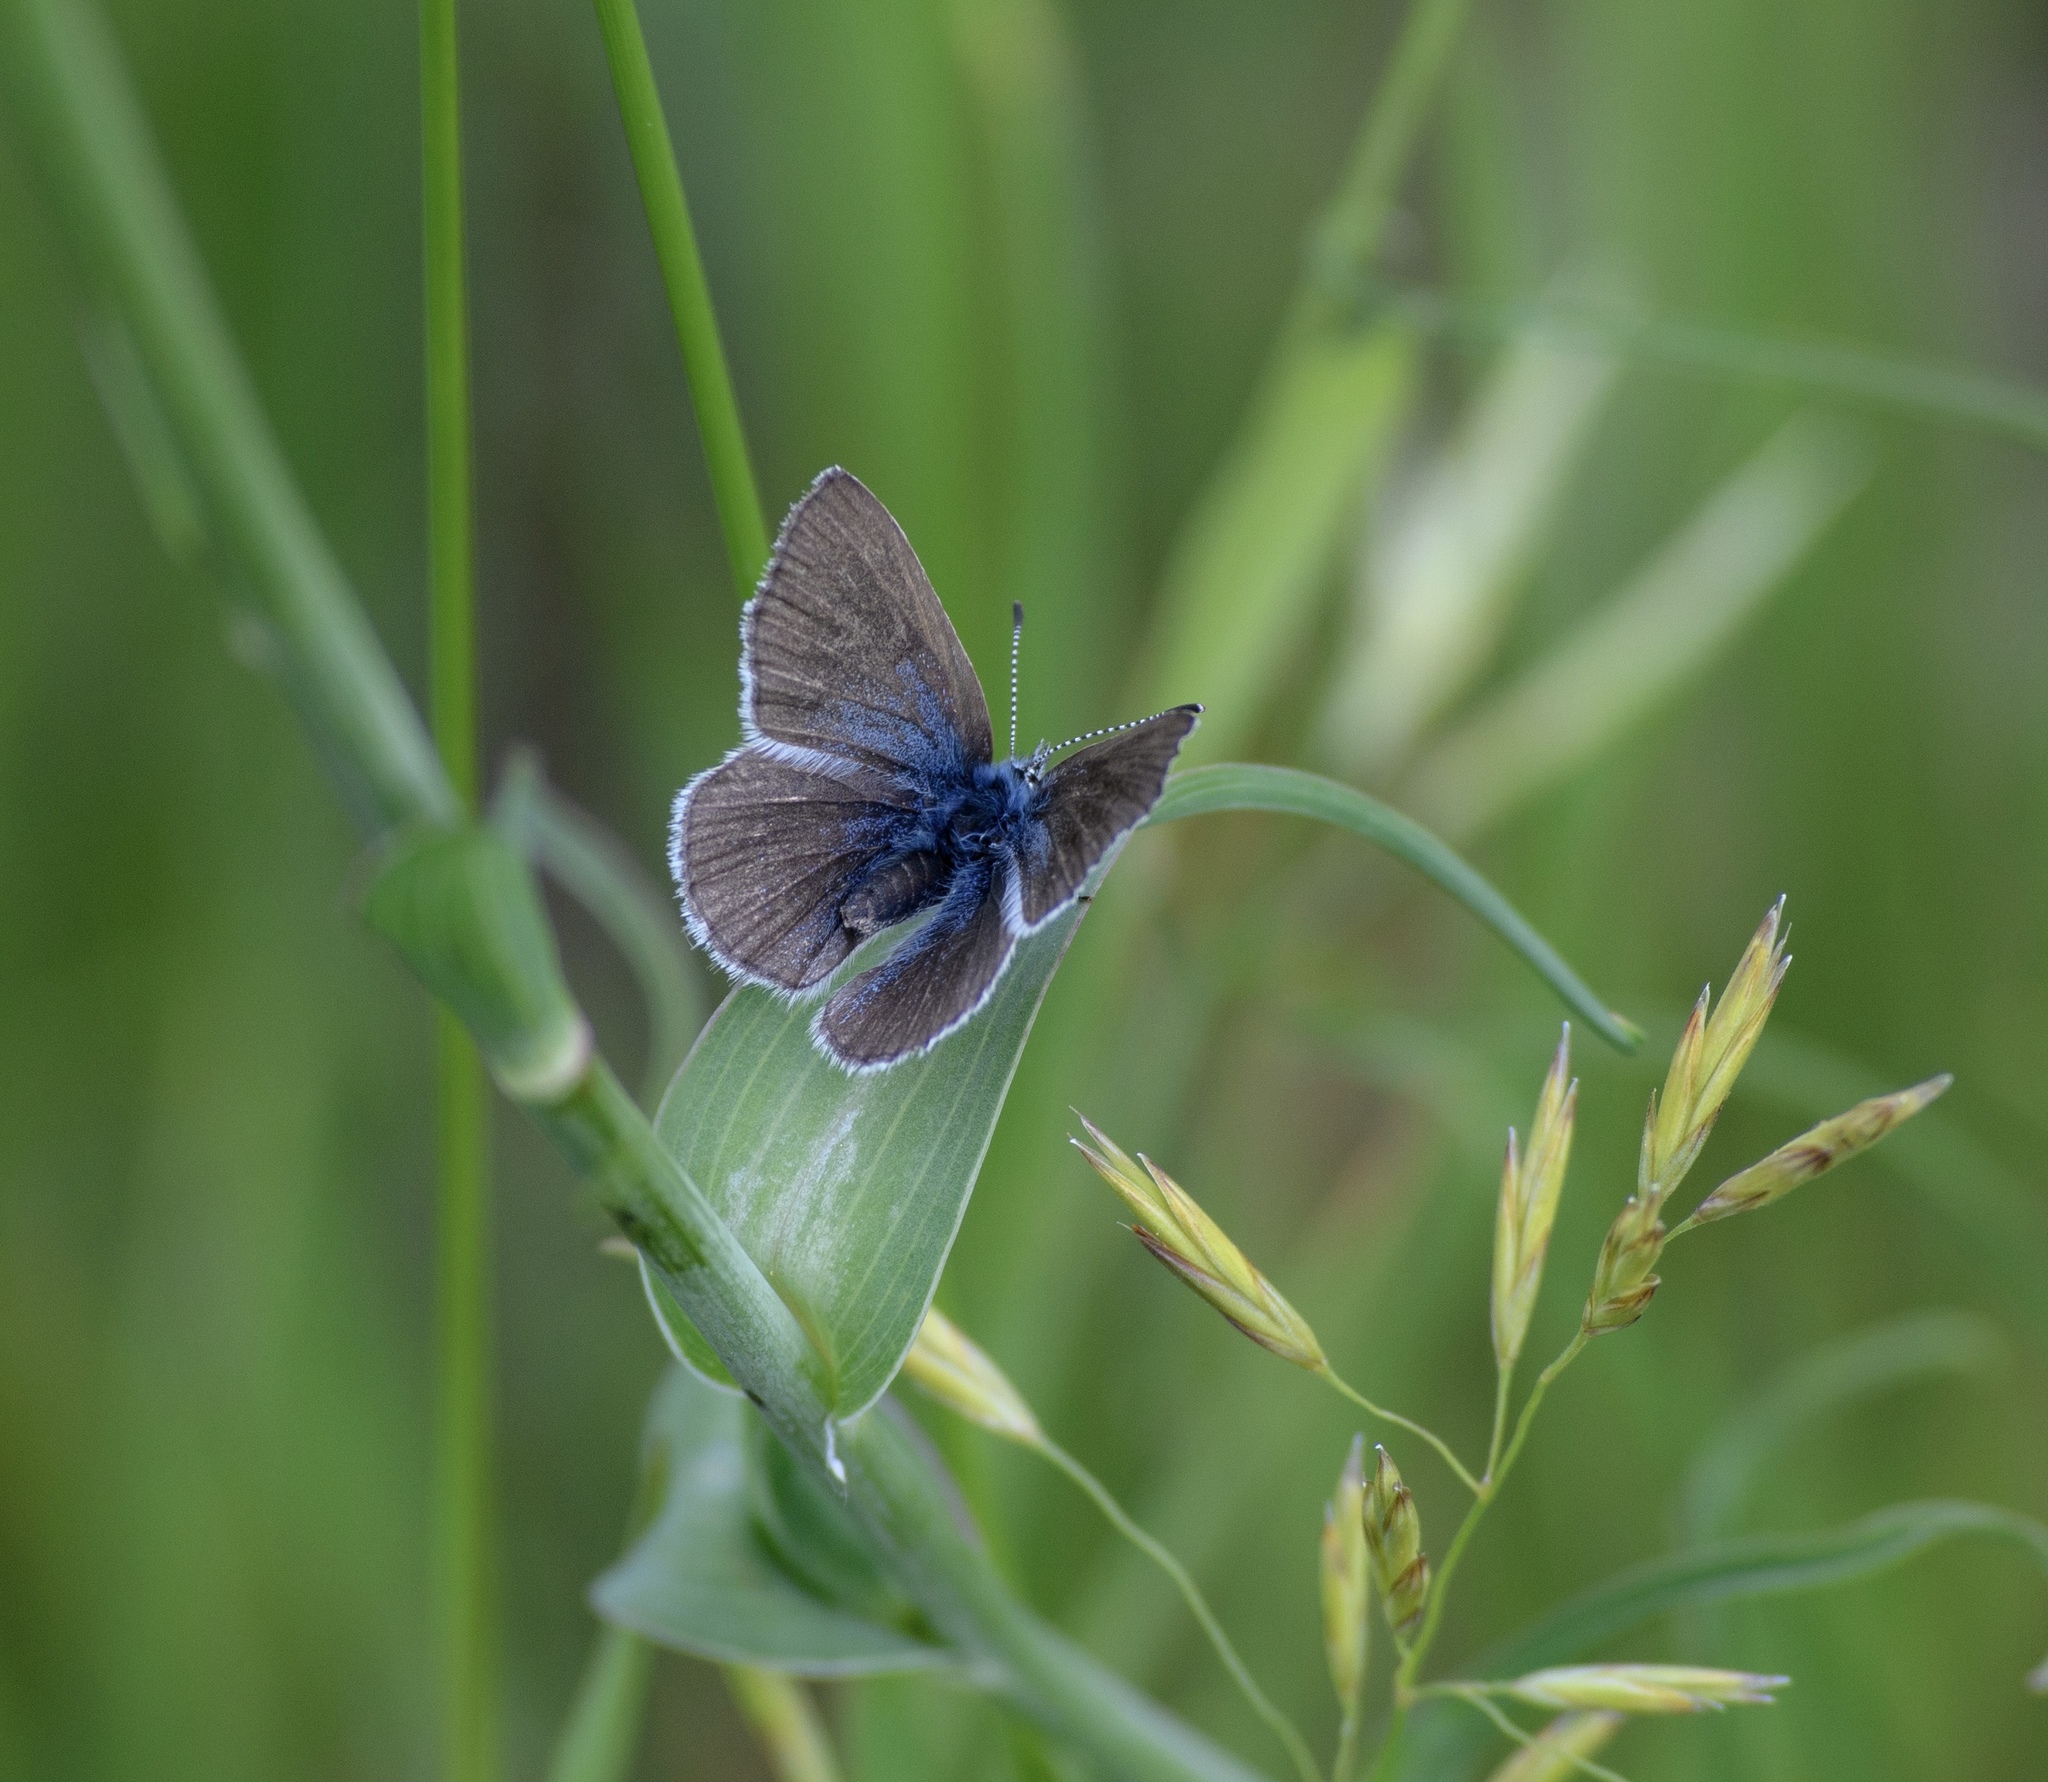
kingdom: Animalia
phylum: Arthropoda
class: Insecta
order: Lepidoptera
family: Lycaenidae
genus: Glaucopsyche
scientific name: Glaucopsyche lygdamus
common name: Silvery blue
